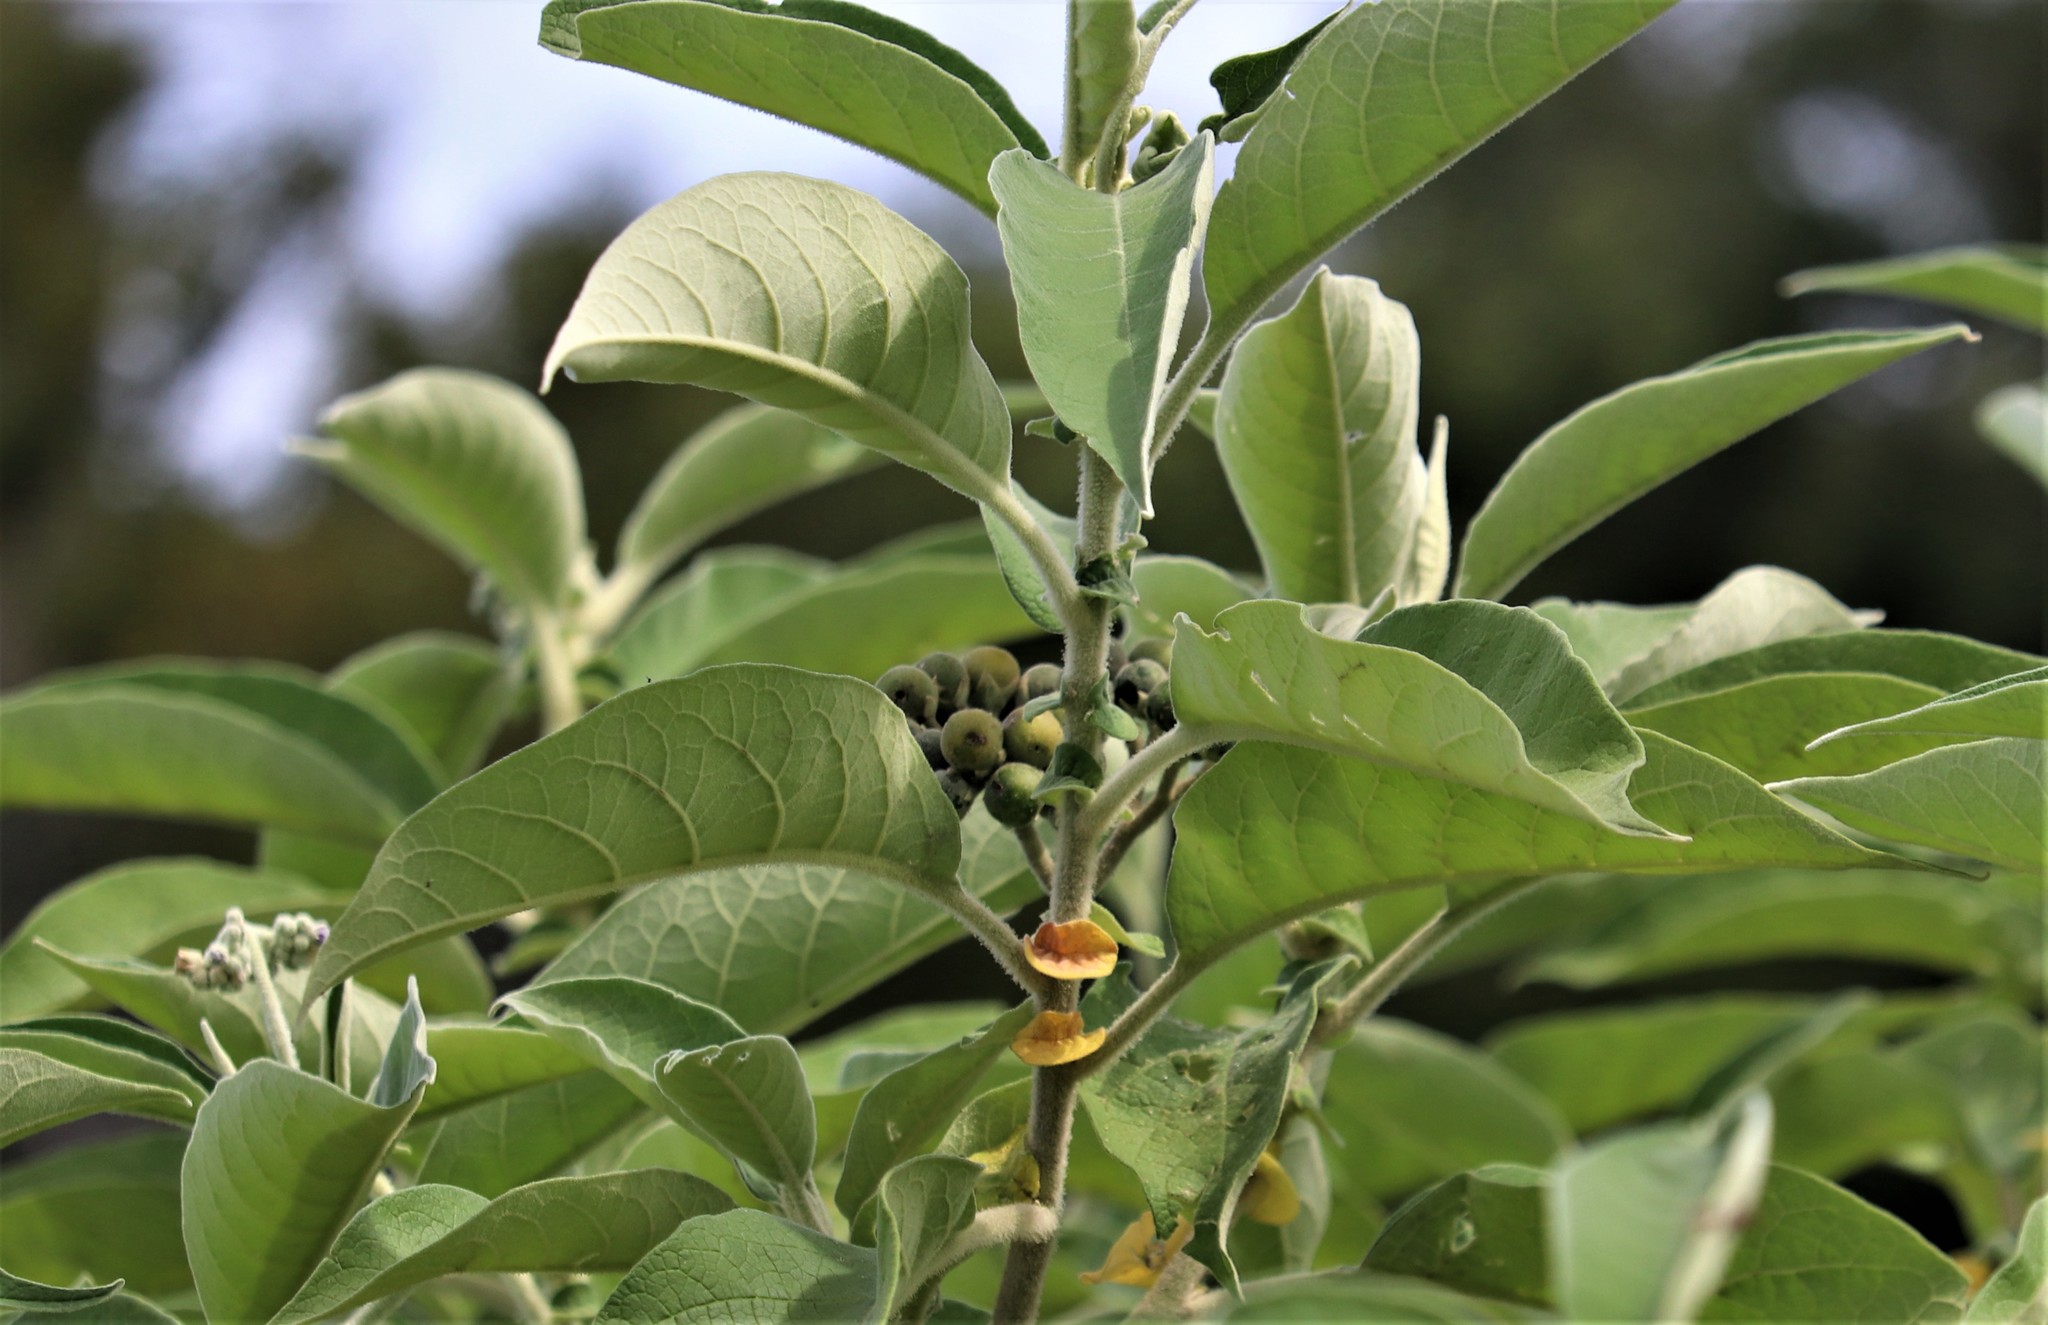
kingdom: Plantae
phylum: Tracheophyta
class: Magnoliopsida
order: Solanales
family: Solanaceae
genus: Solanum
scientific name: Solanum mauritianum
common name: Earleaf nightshade
